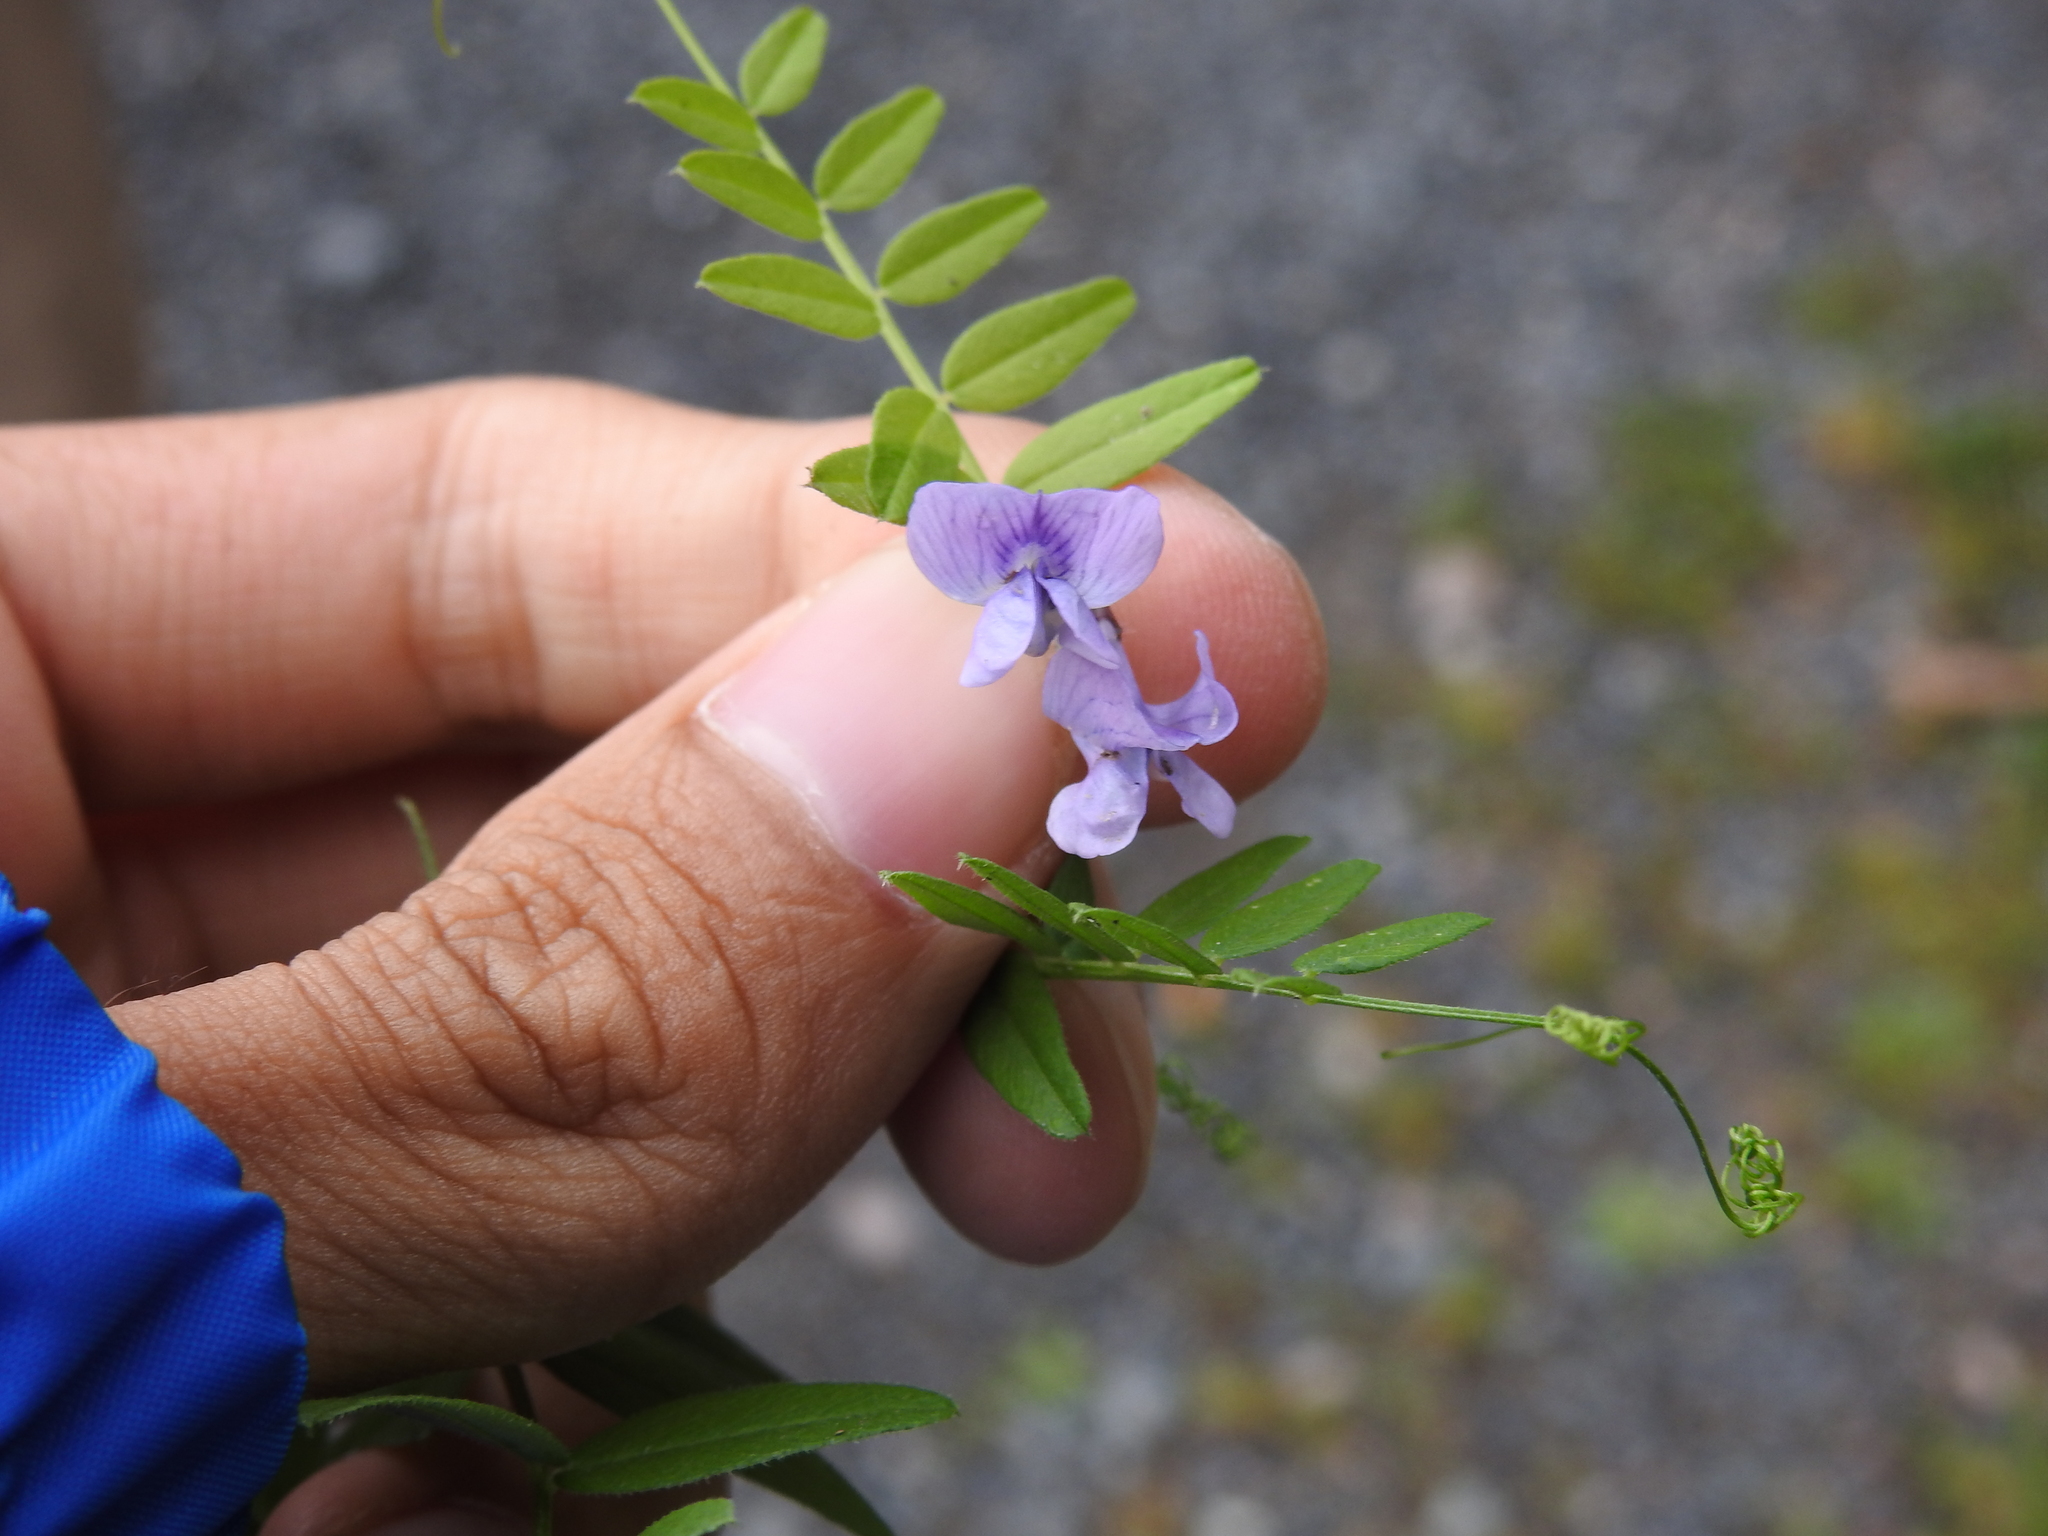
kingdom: Plantae
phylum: Tracheophyta
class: Magnoliopsida
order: Fabales
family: Fabaceae
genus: Vicia
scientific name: Vicia sepium
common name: Bush vetch
